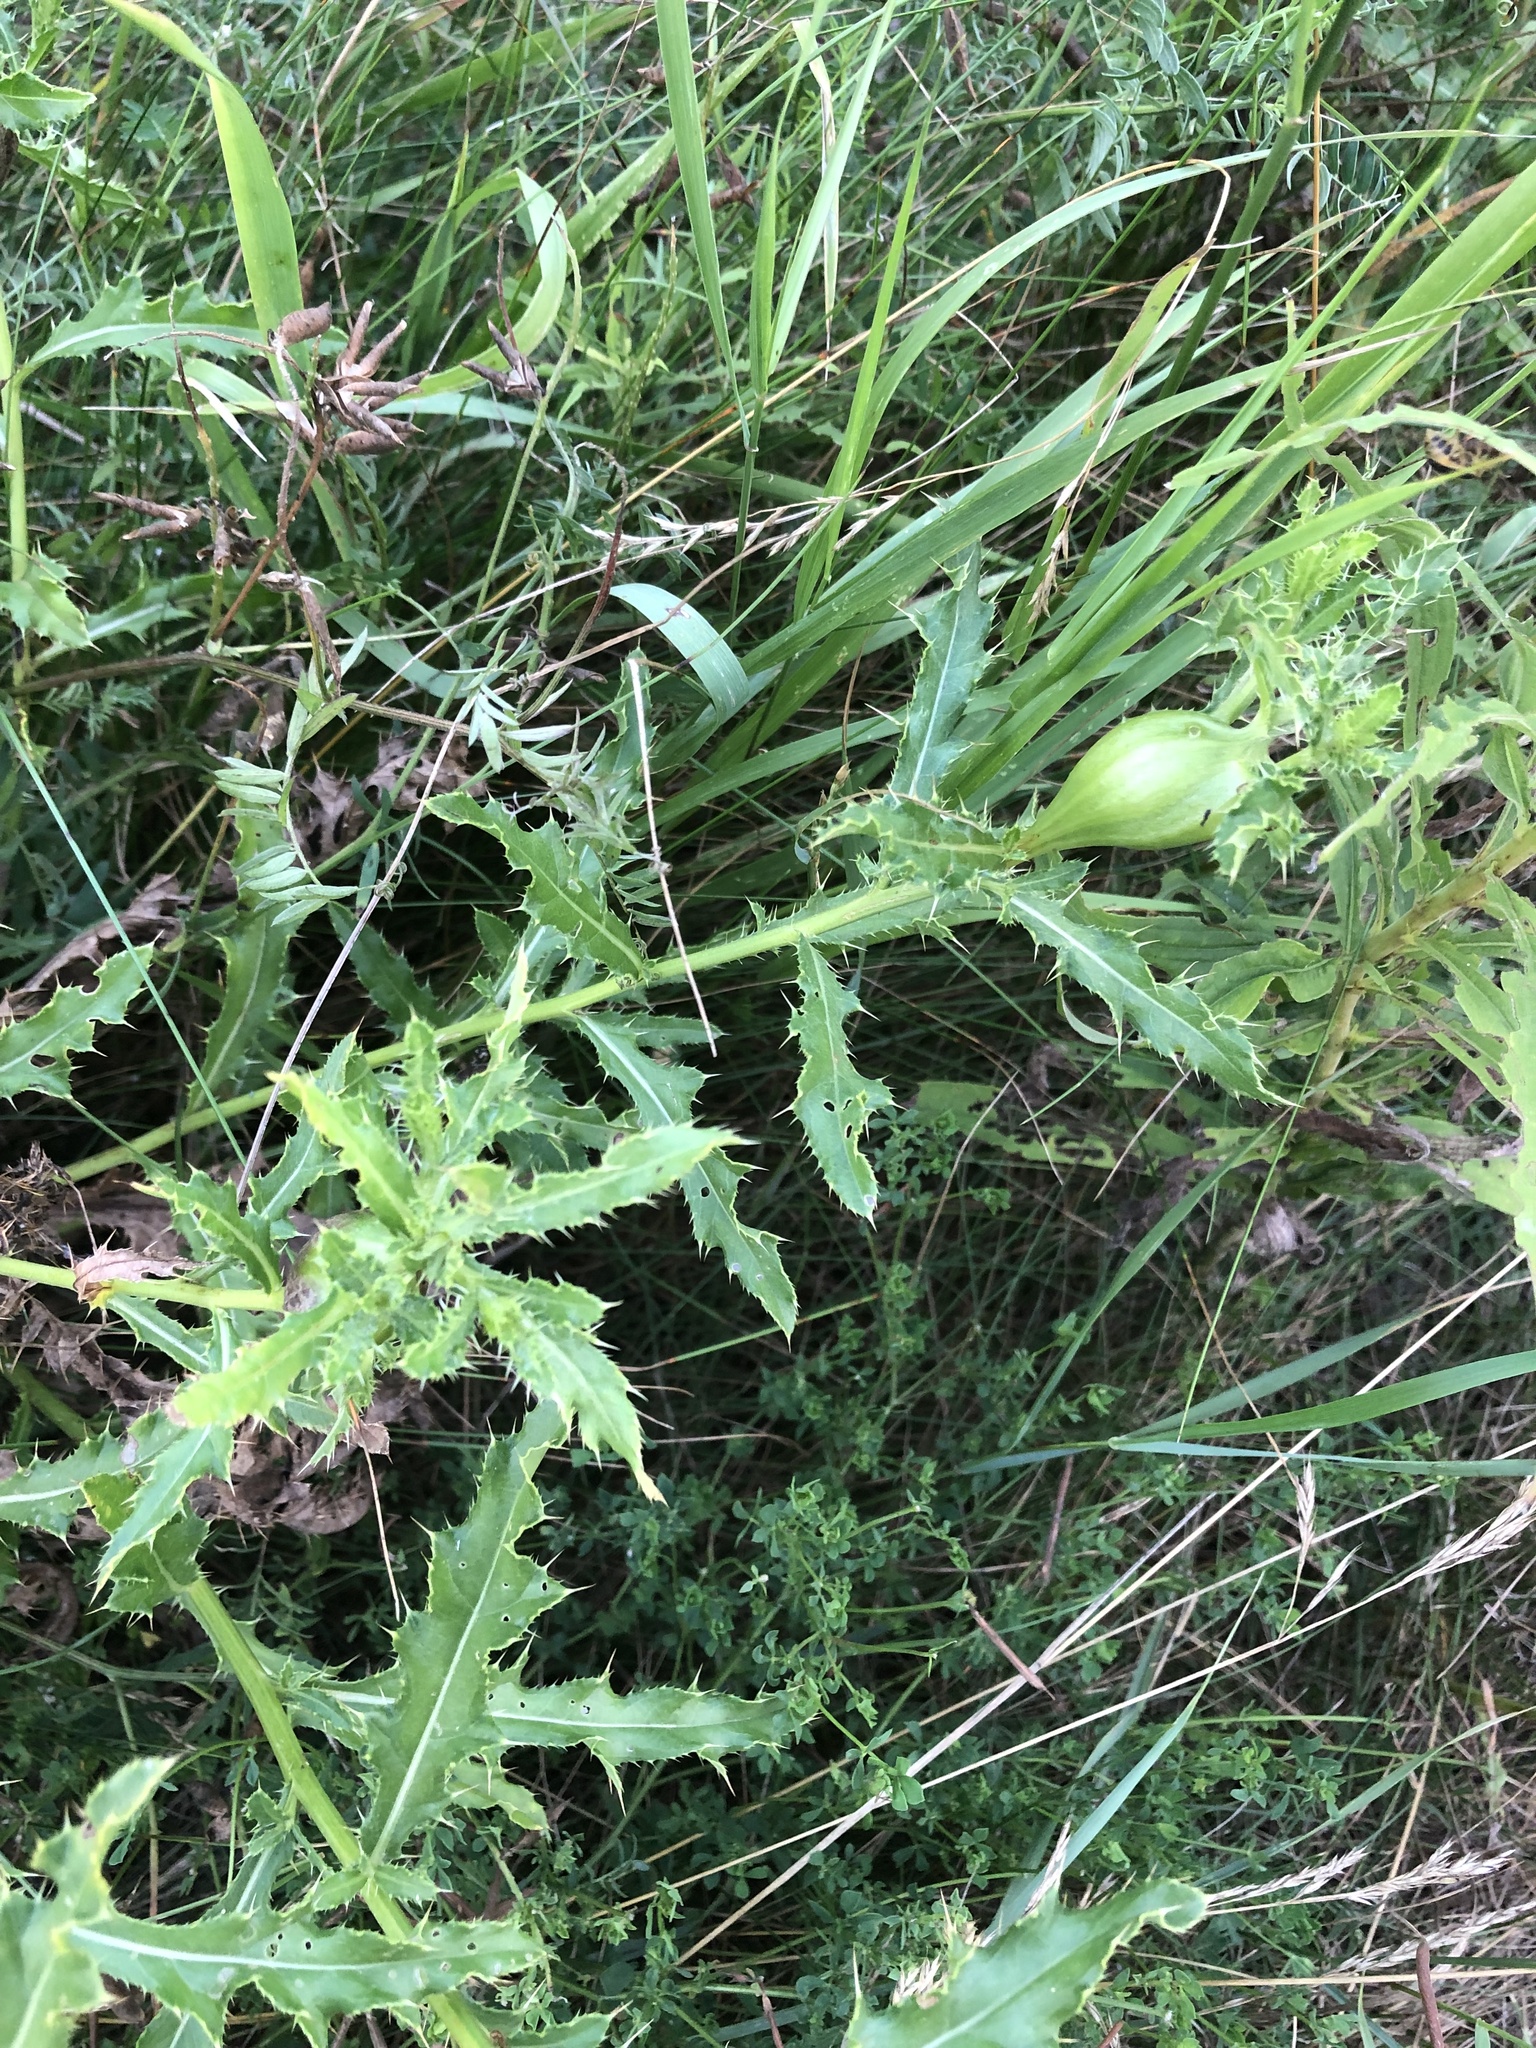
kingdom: Plantae
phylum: Tracheophyta
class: Magnoliopsida
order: Asterales
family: Asteraceae
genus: Cirsium
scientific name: Cirsium arvense
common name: Creeping thistle
